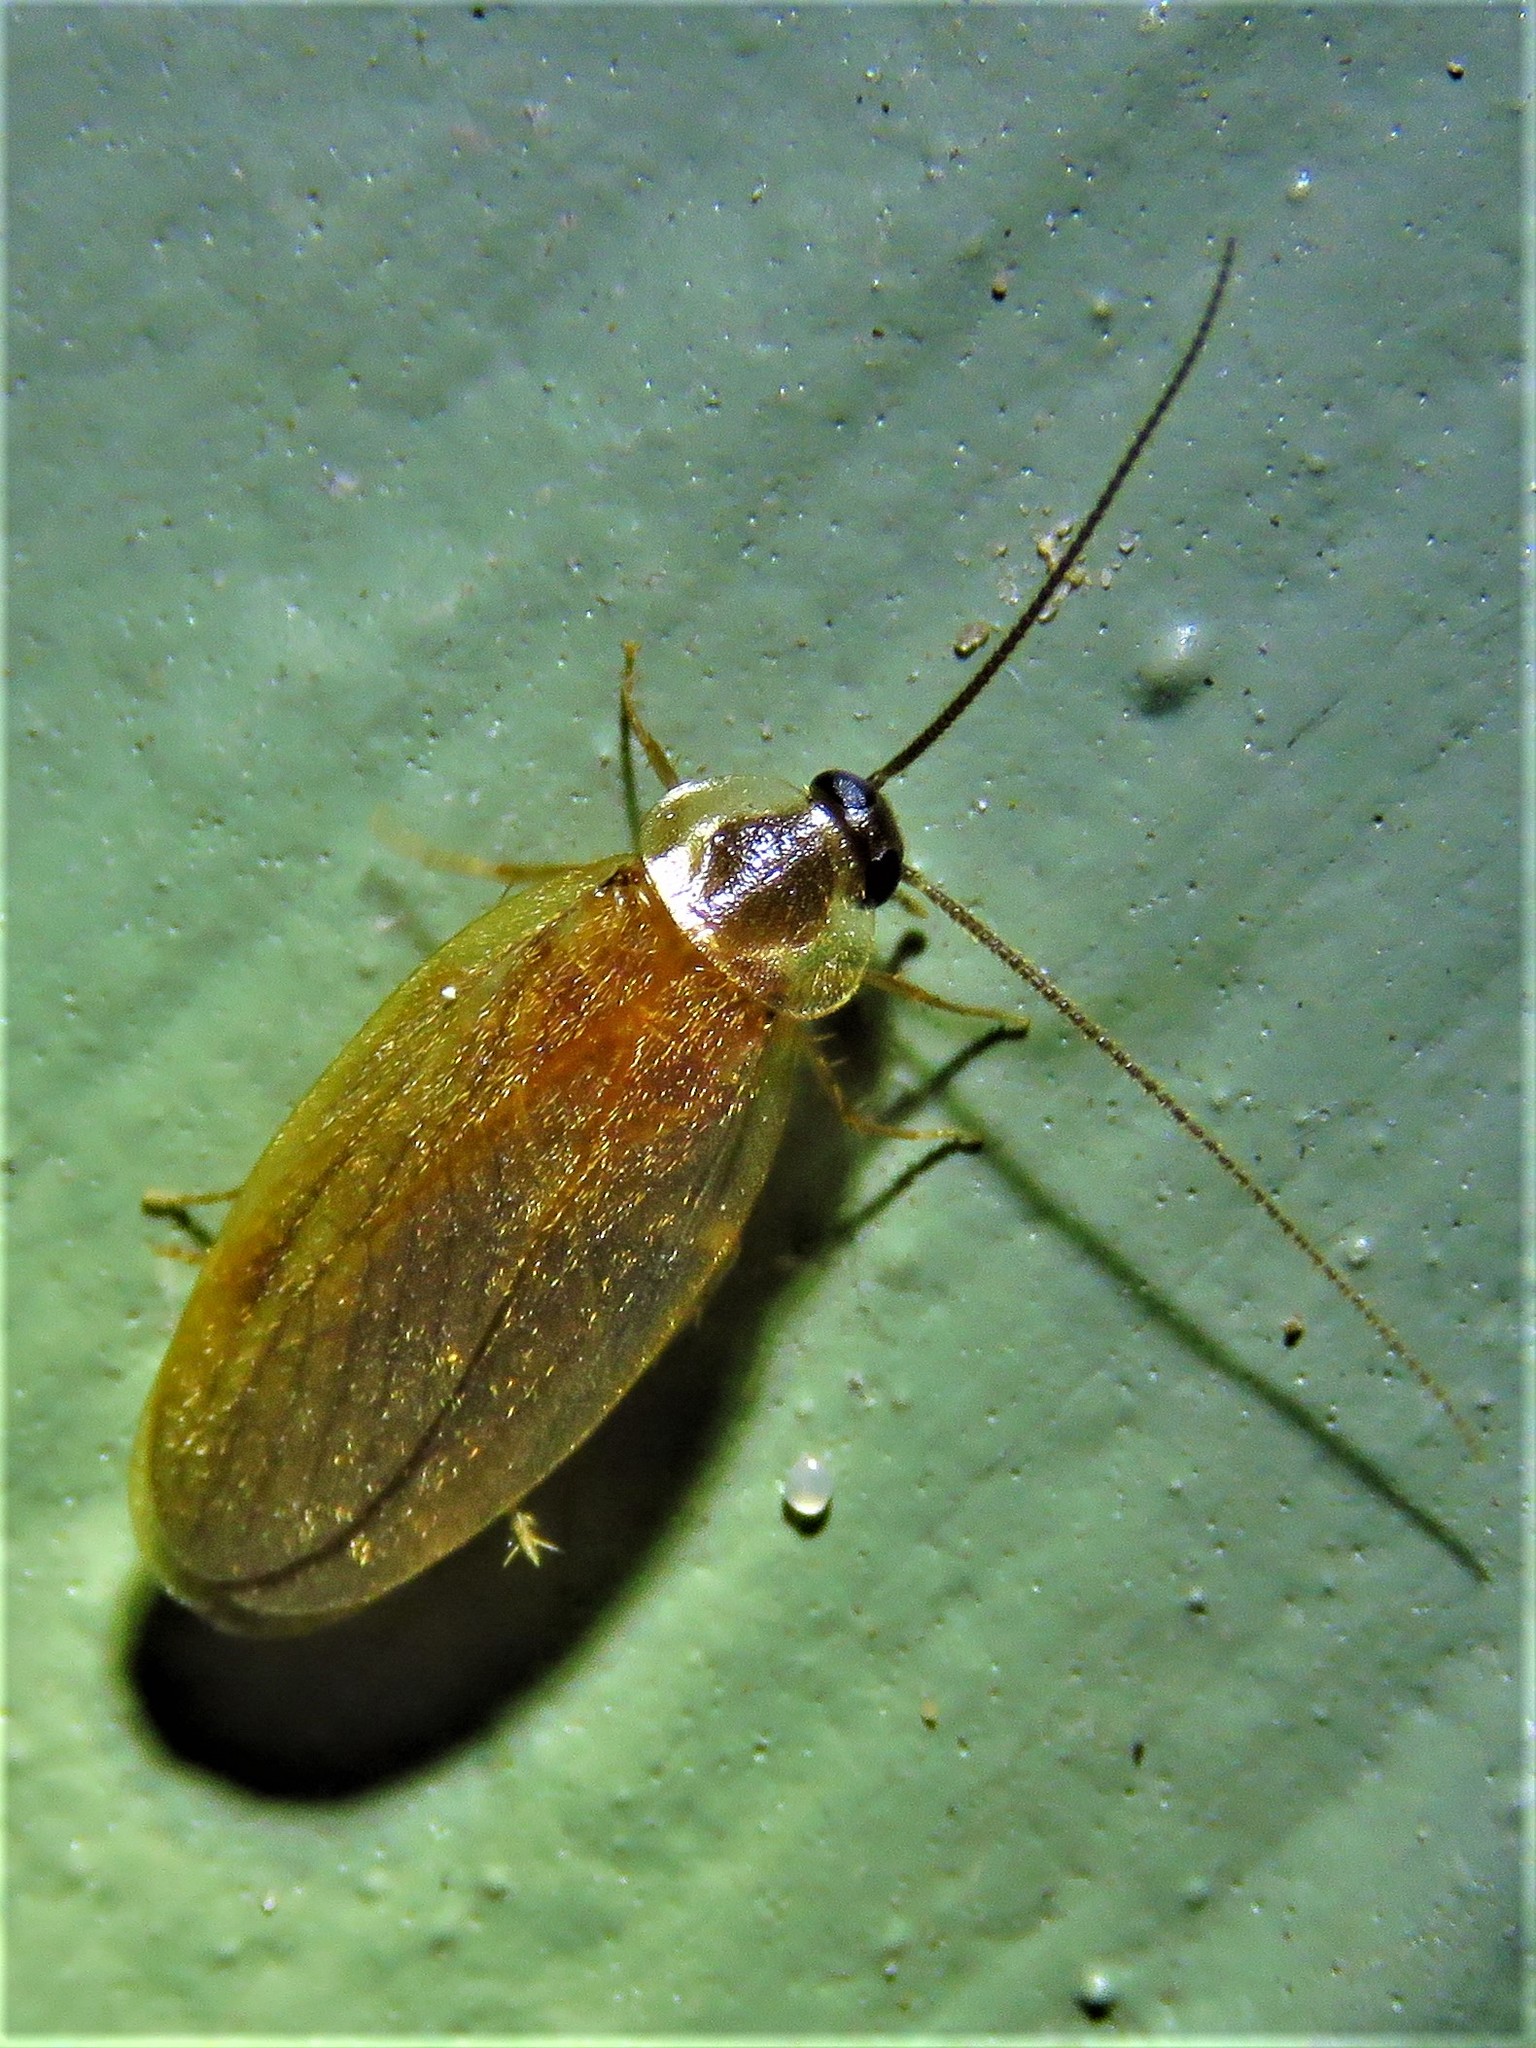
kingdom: Animalia
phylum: Arthropoda
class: Insecta
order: Blattodea
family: Corydiidae
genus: Compsodes
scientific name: Compsodes schwarzi
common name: Schwarz's hooded cockroach
